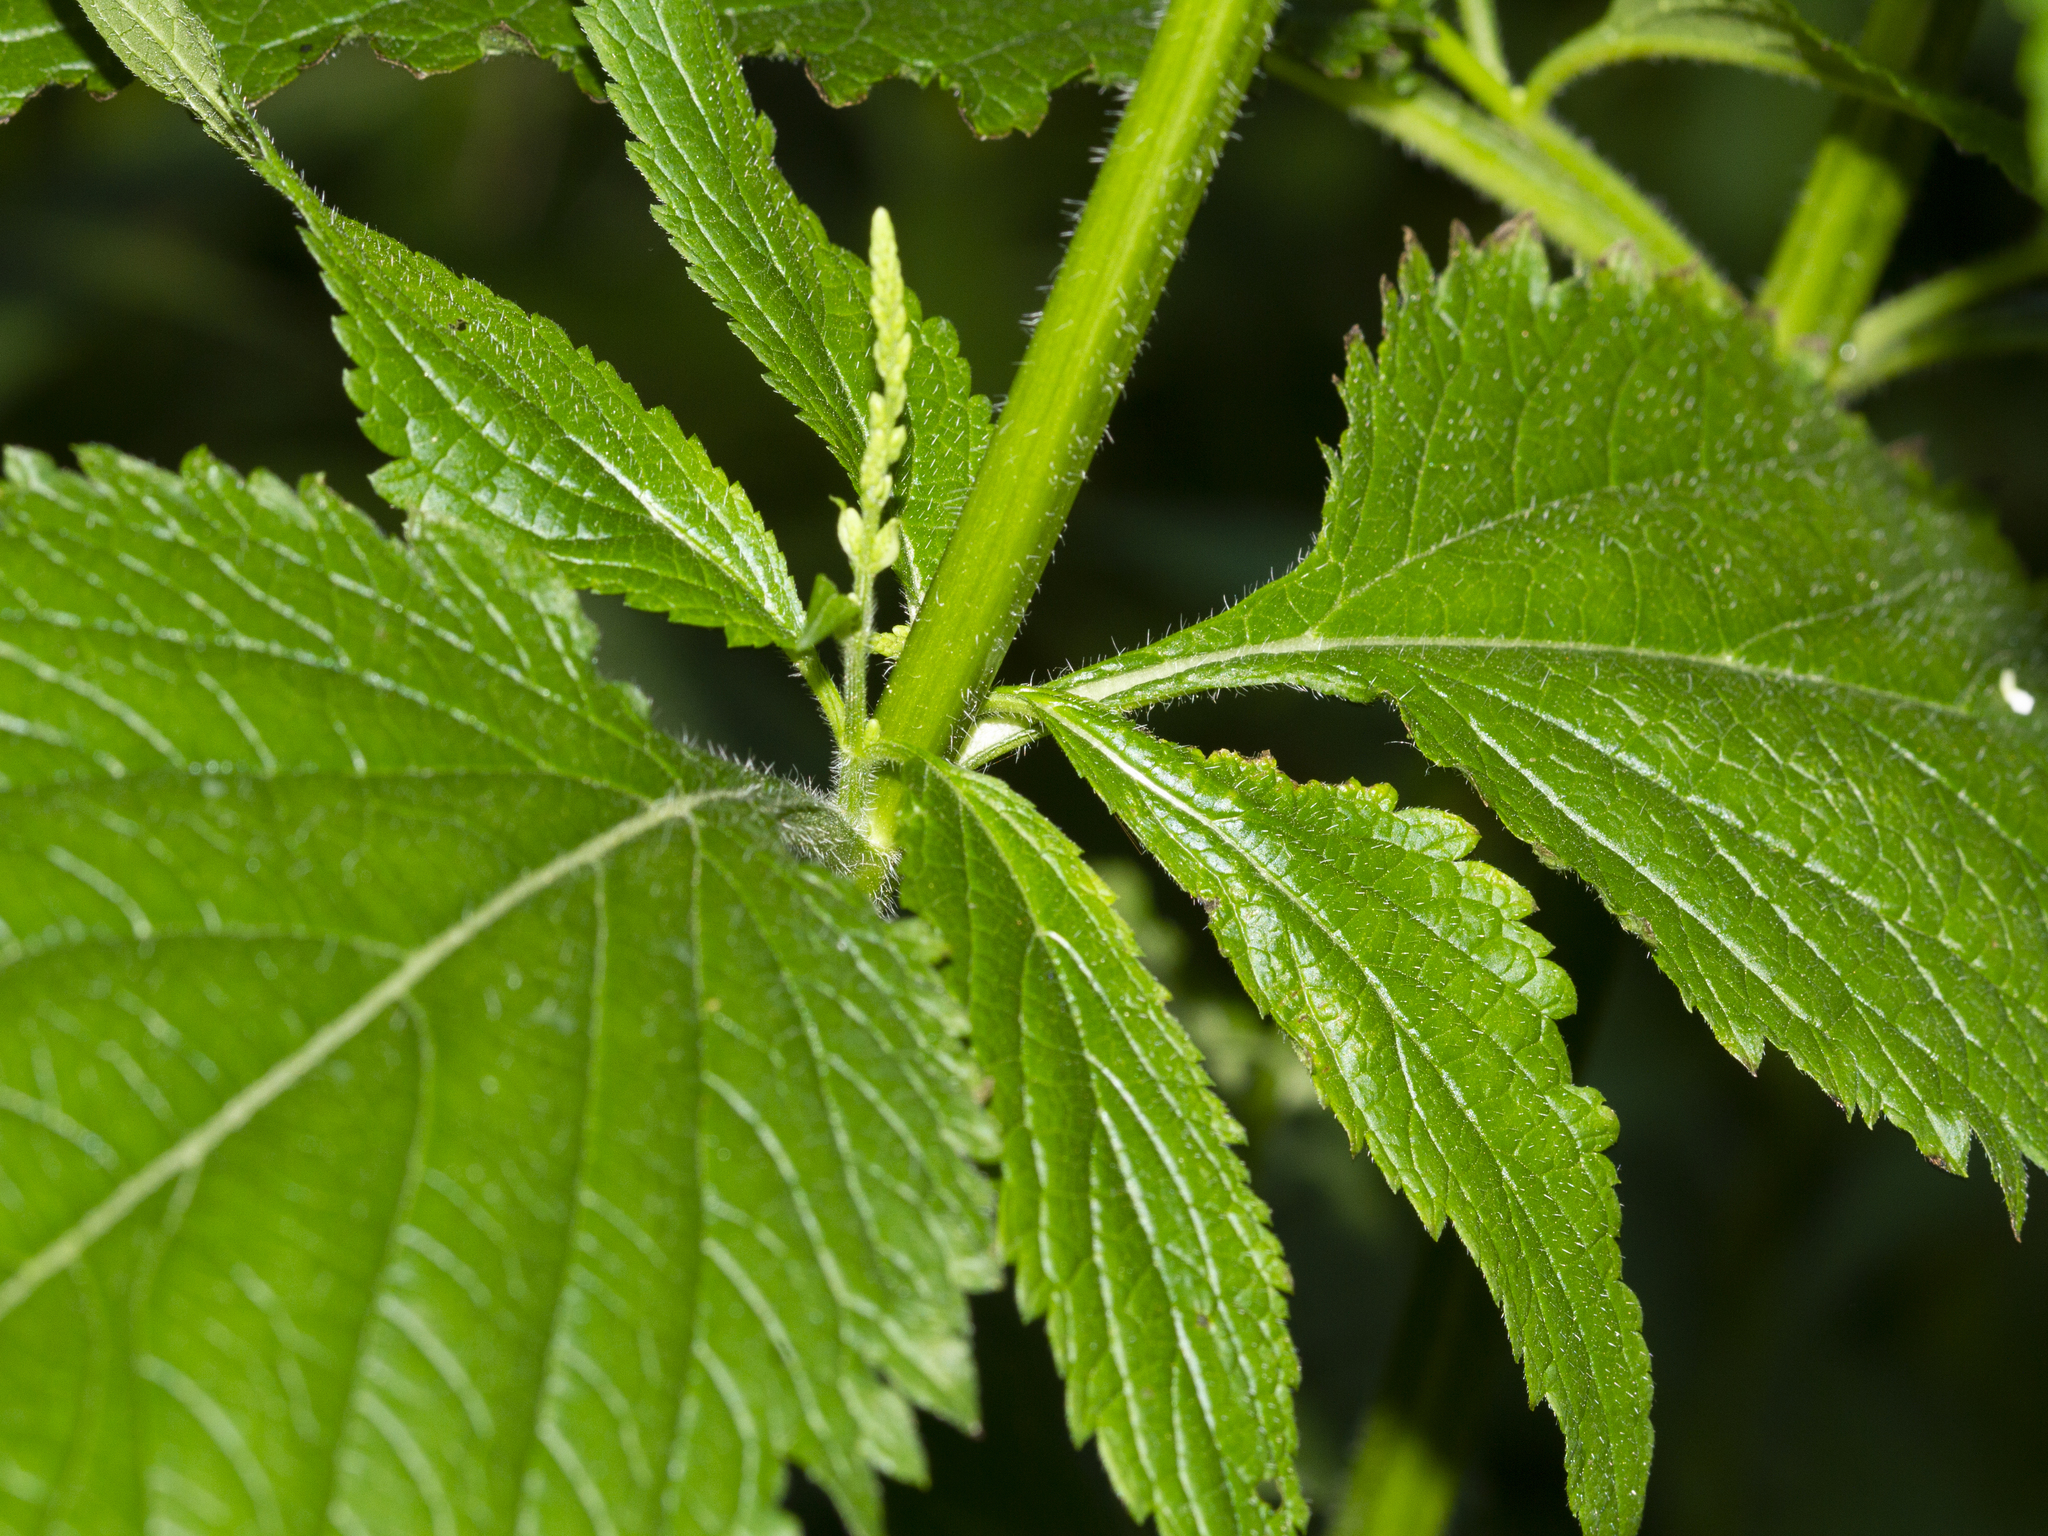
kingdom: Plantae
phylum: Tracheophyta
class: Magnoliopsida
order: Lamiales
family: Verbenaceae
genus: Verbena
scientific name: Verbena urticifolia
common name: Nettle-leaved vervain
